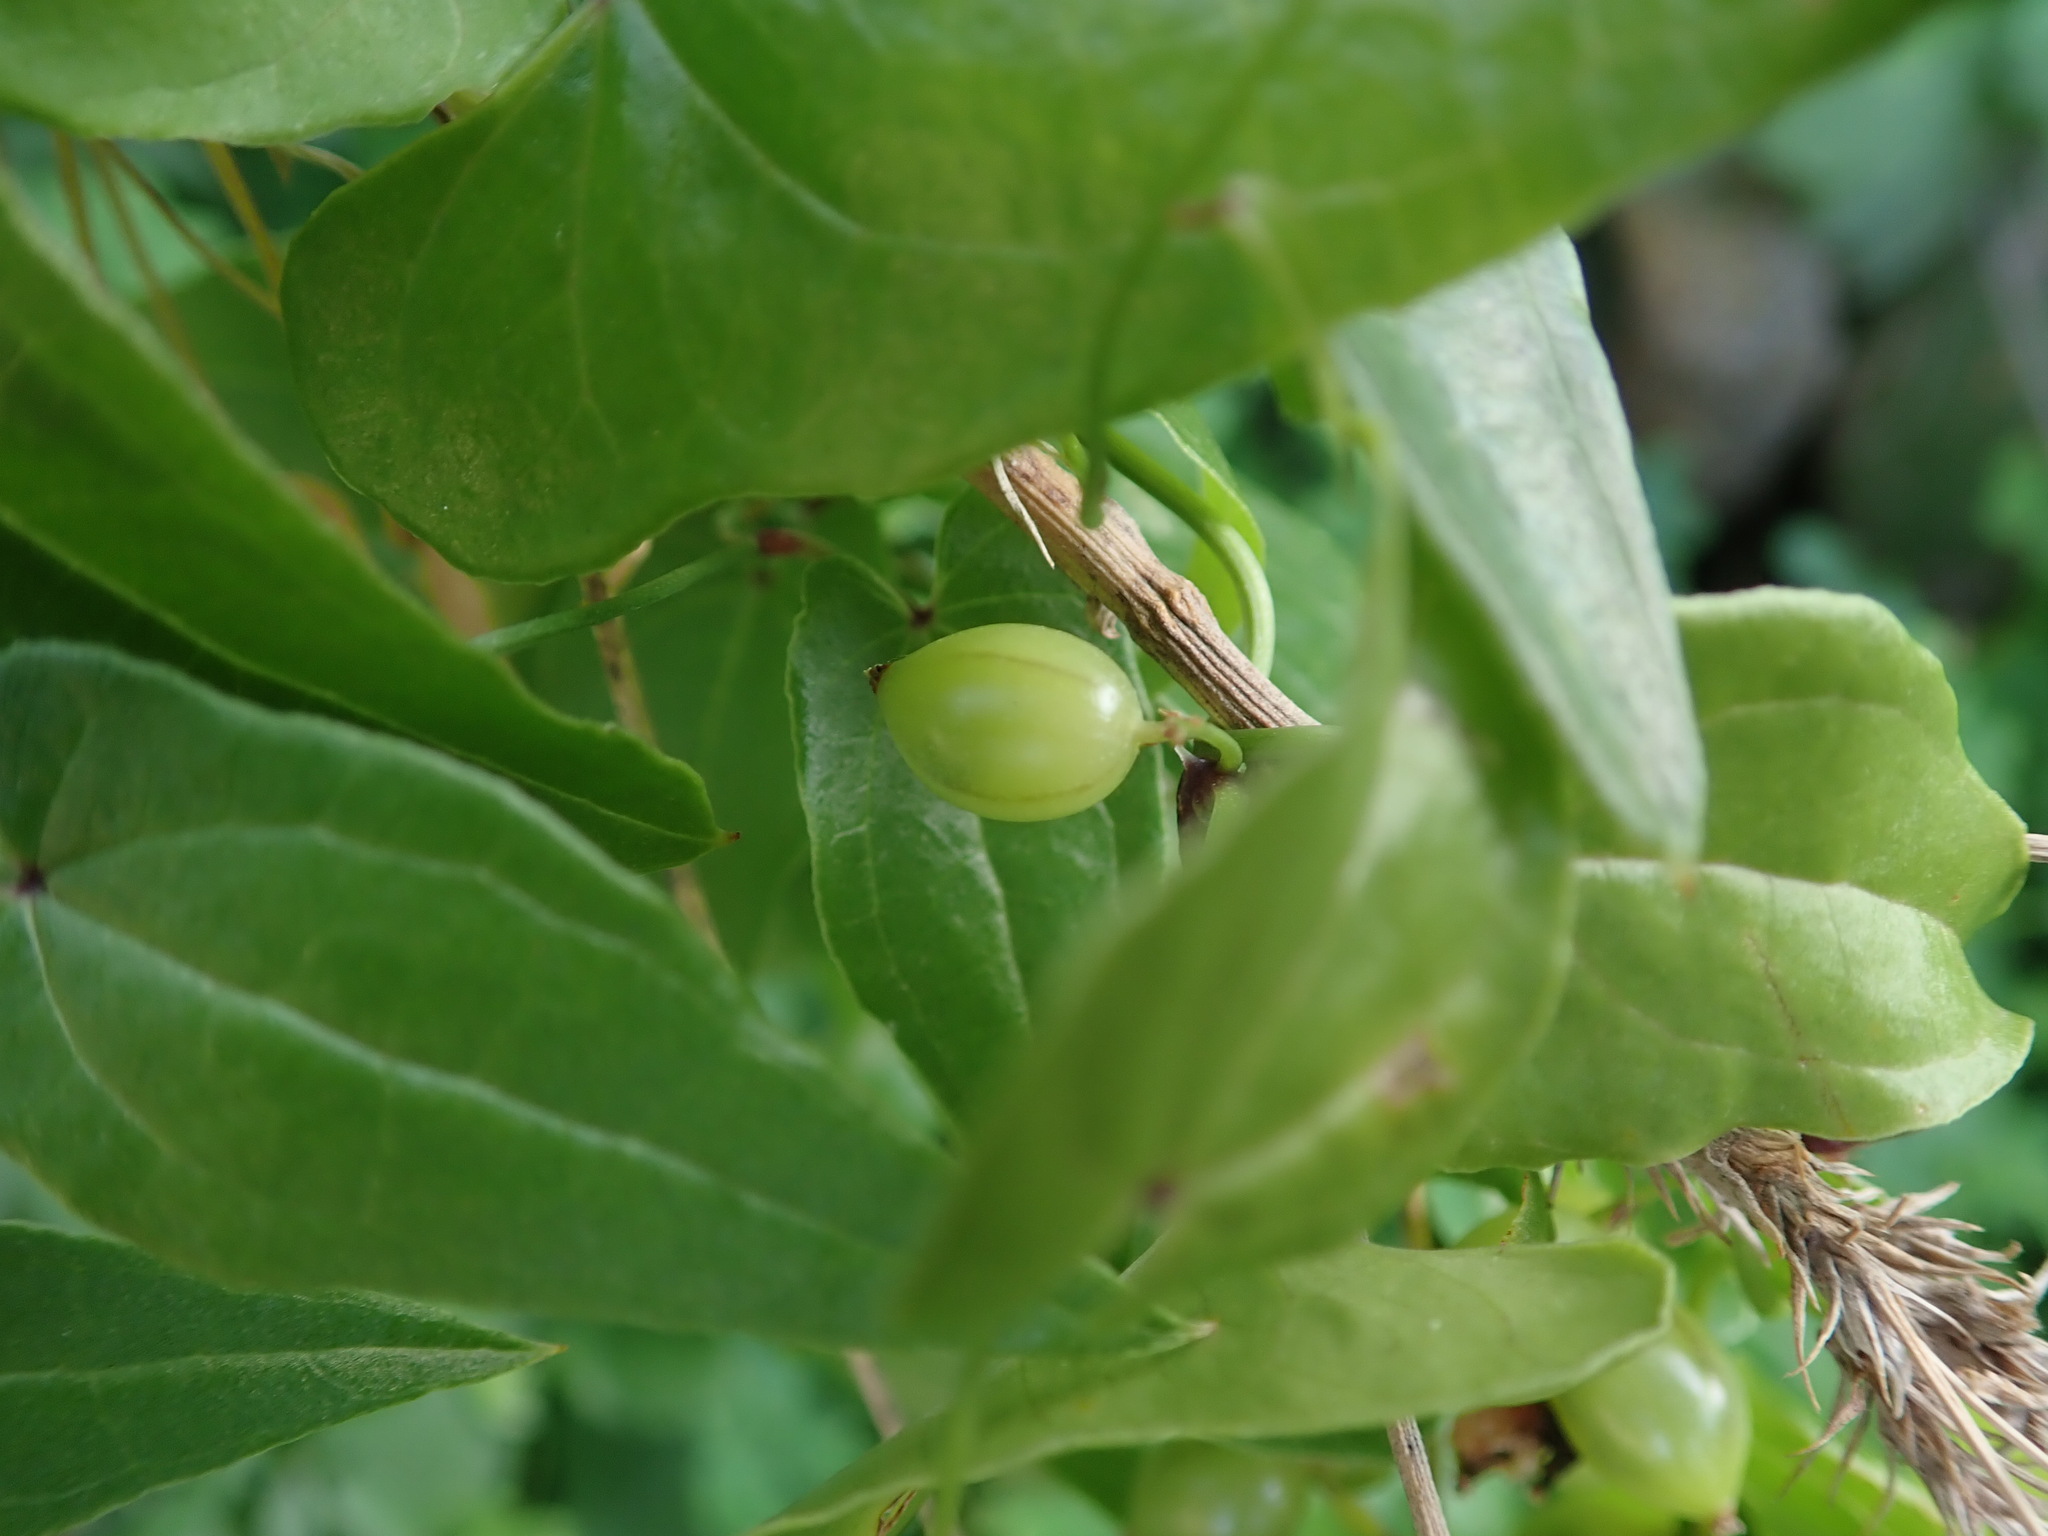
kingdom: Plantae
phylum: Tracheophyta
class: Liliopsida
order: Dioscoreales
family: Dioscoreaceae
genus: Dioscorea
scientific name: Dioscorea communis
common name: Black-bindweed
